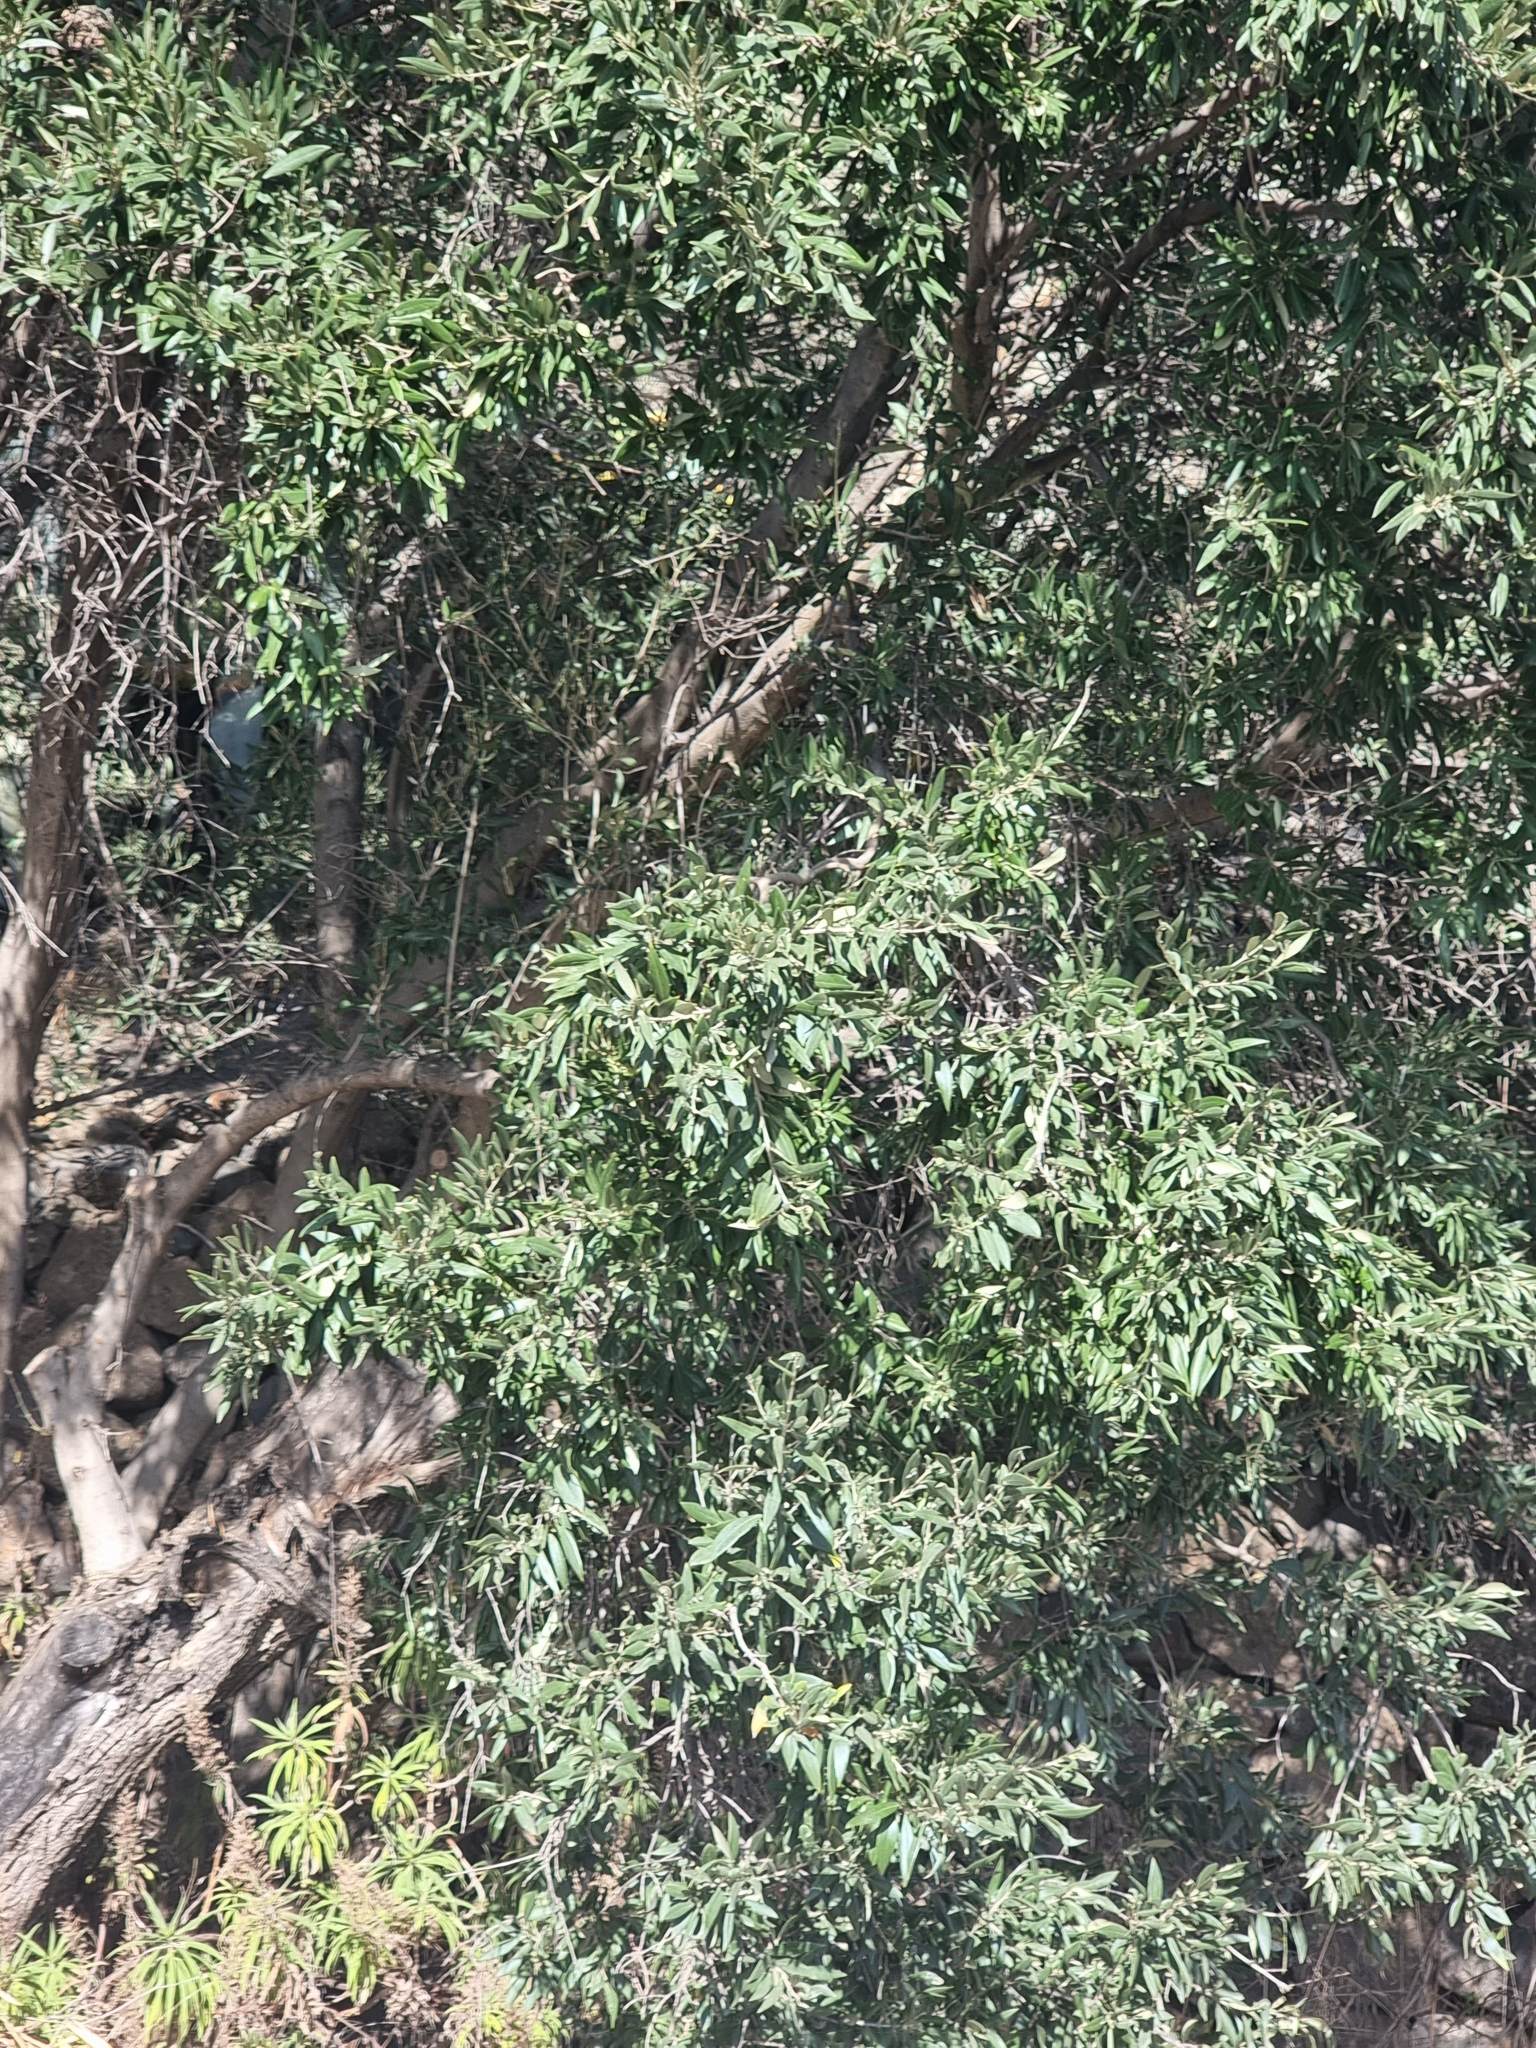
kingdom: Plantae
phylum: Tracheophyta
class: Magnoliopsida
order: Lamiales
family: Oleaceae
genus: Olea
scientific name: Olea europaea
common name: Olive
